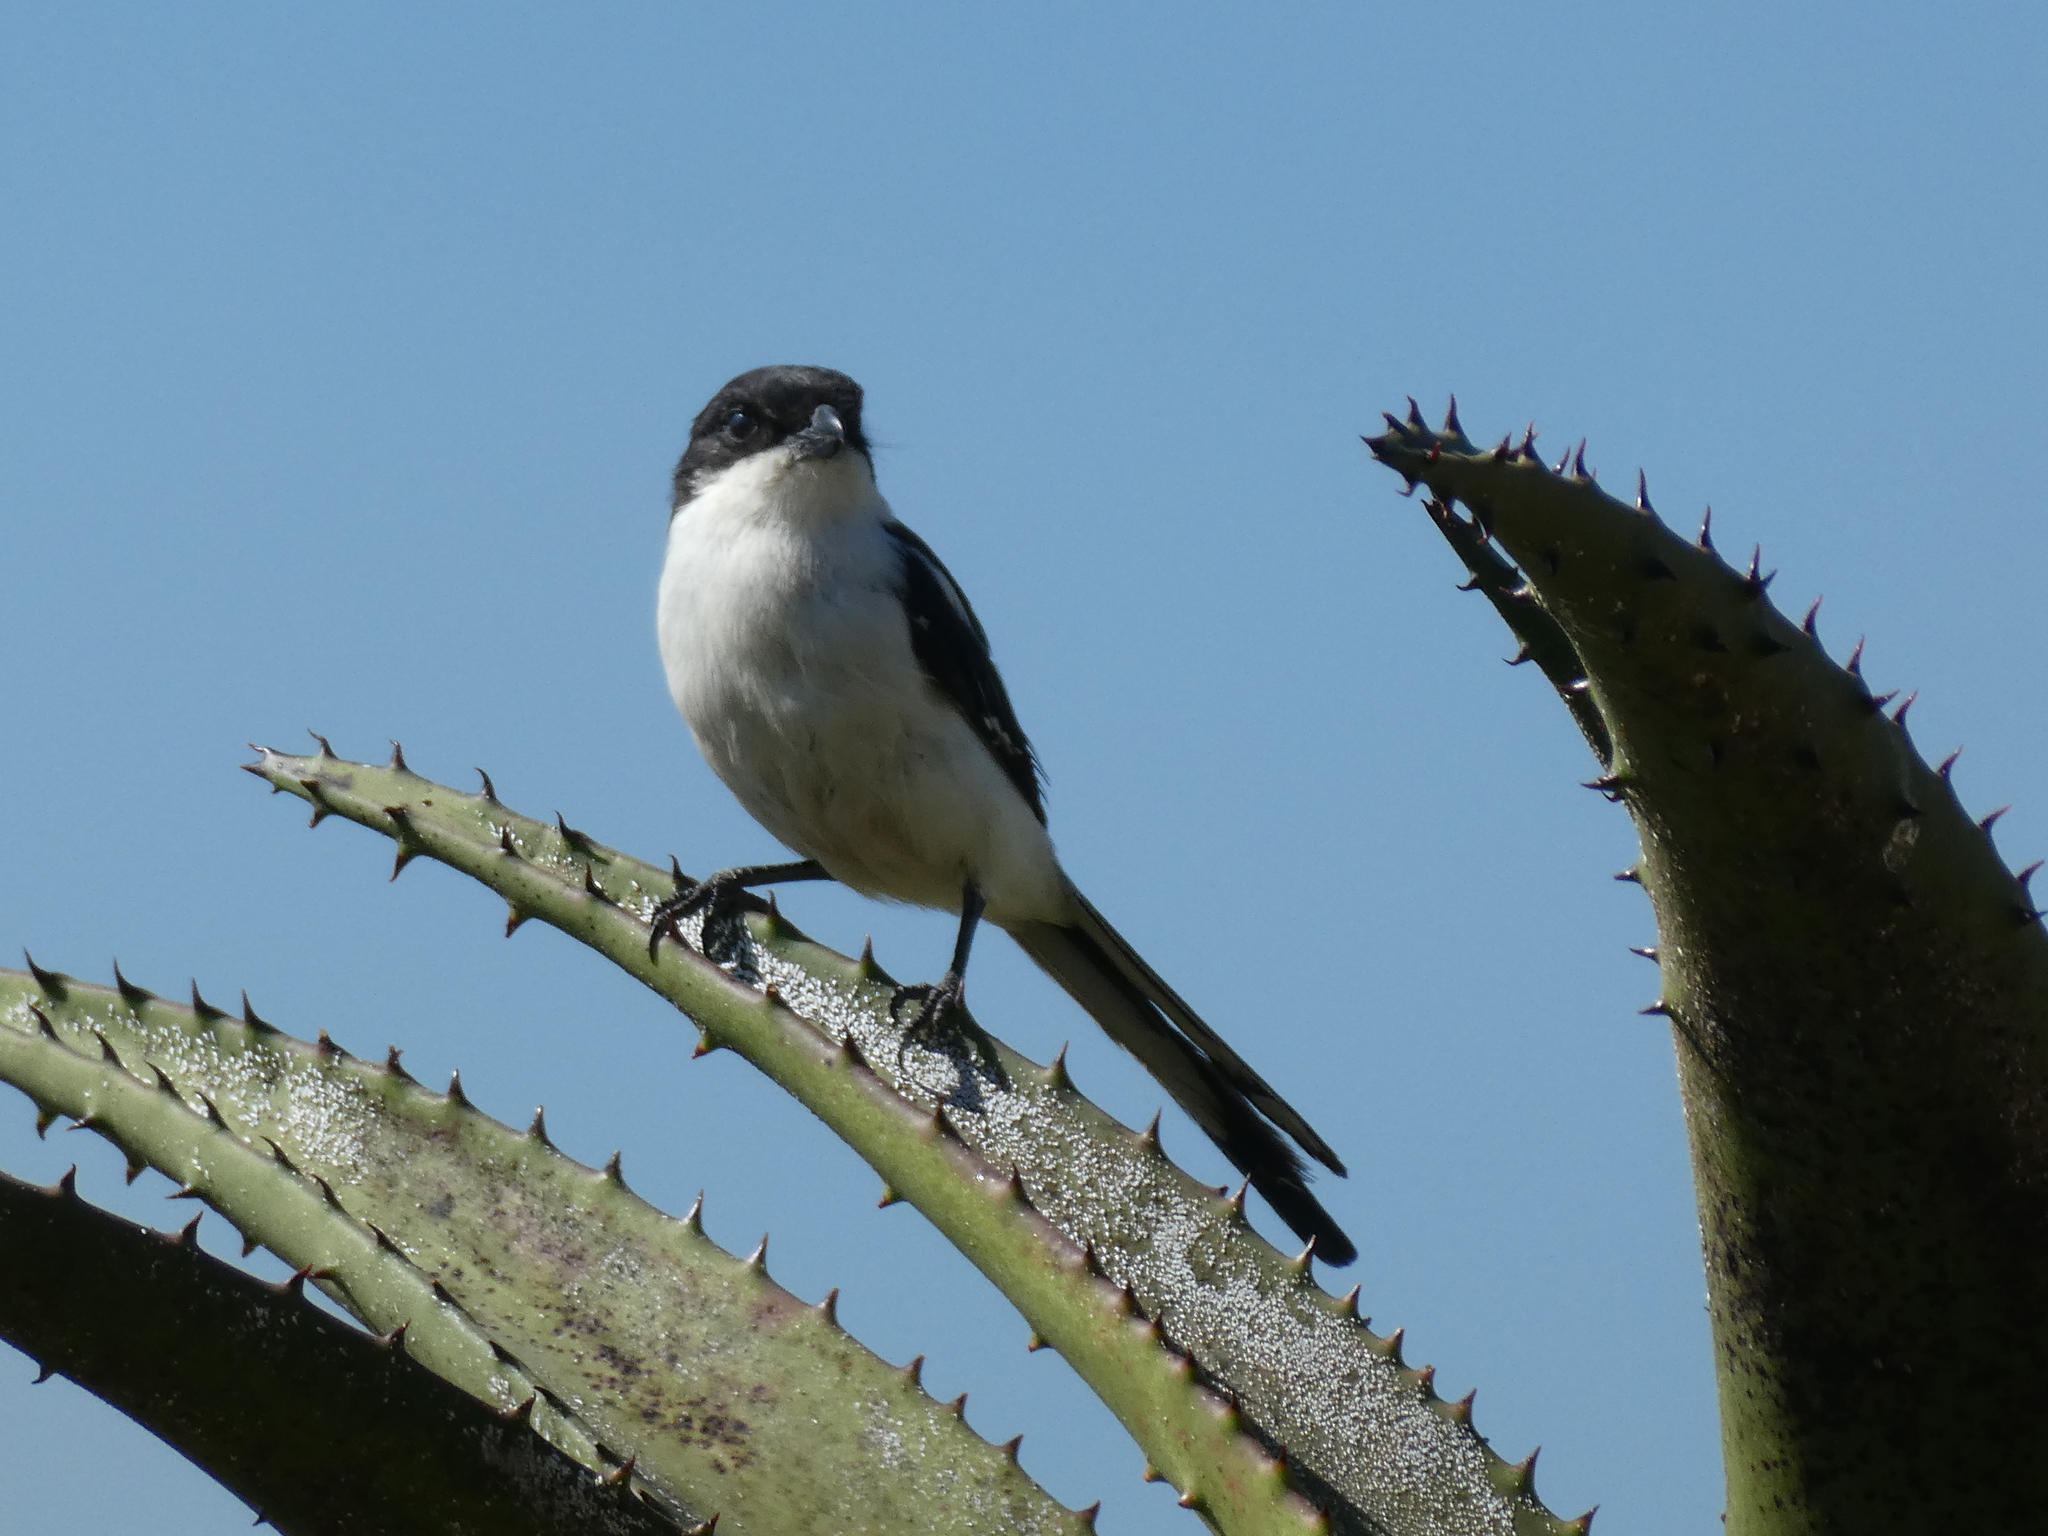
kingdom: Animalia
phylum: Chordata
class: Aves
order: Passeriformes
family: Laniidae
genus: Lanius
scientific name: Lanius collaris
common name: Southern fiscal
